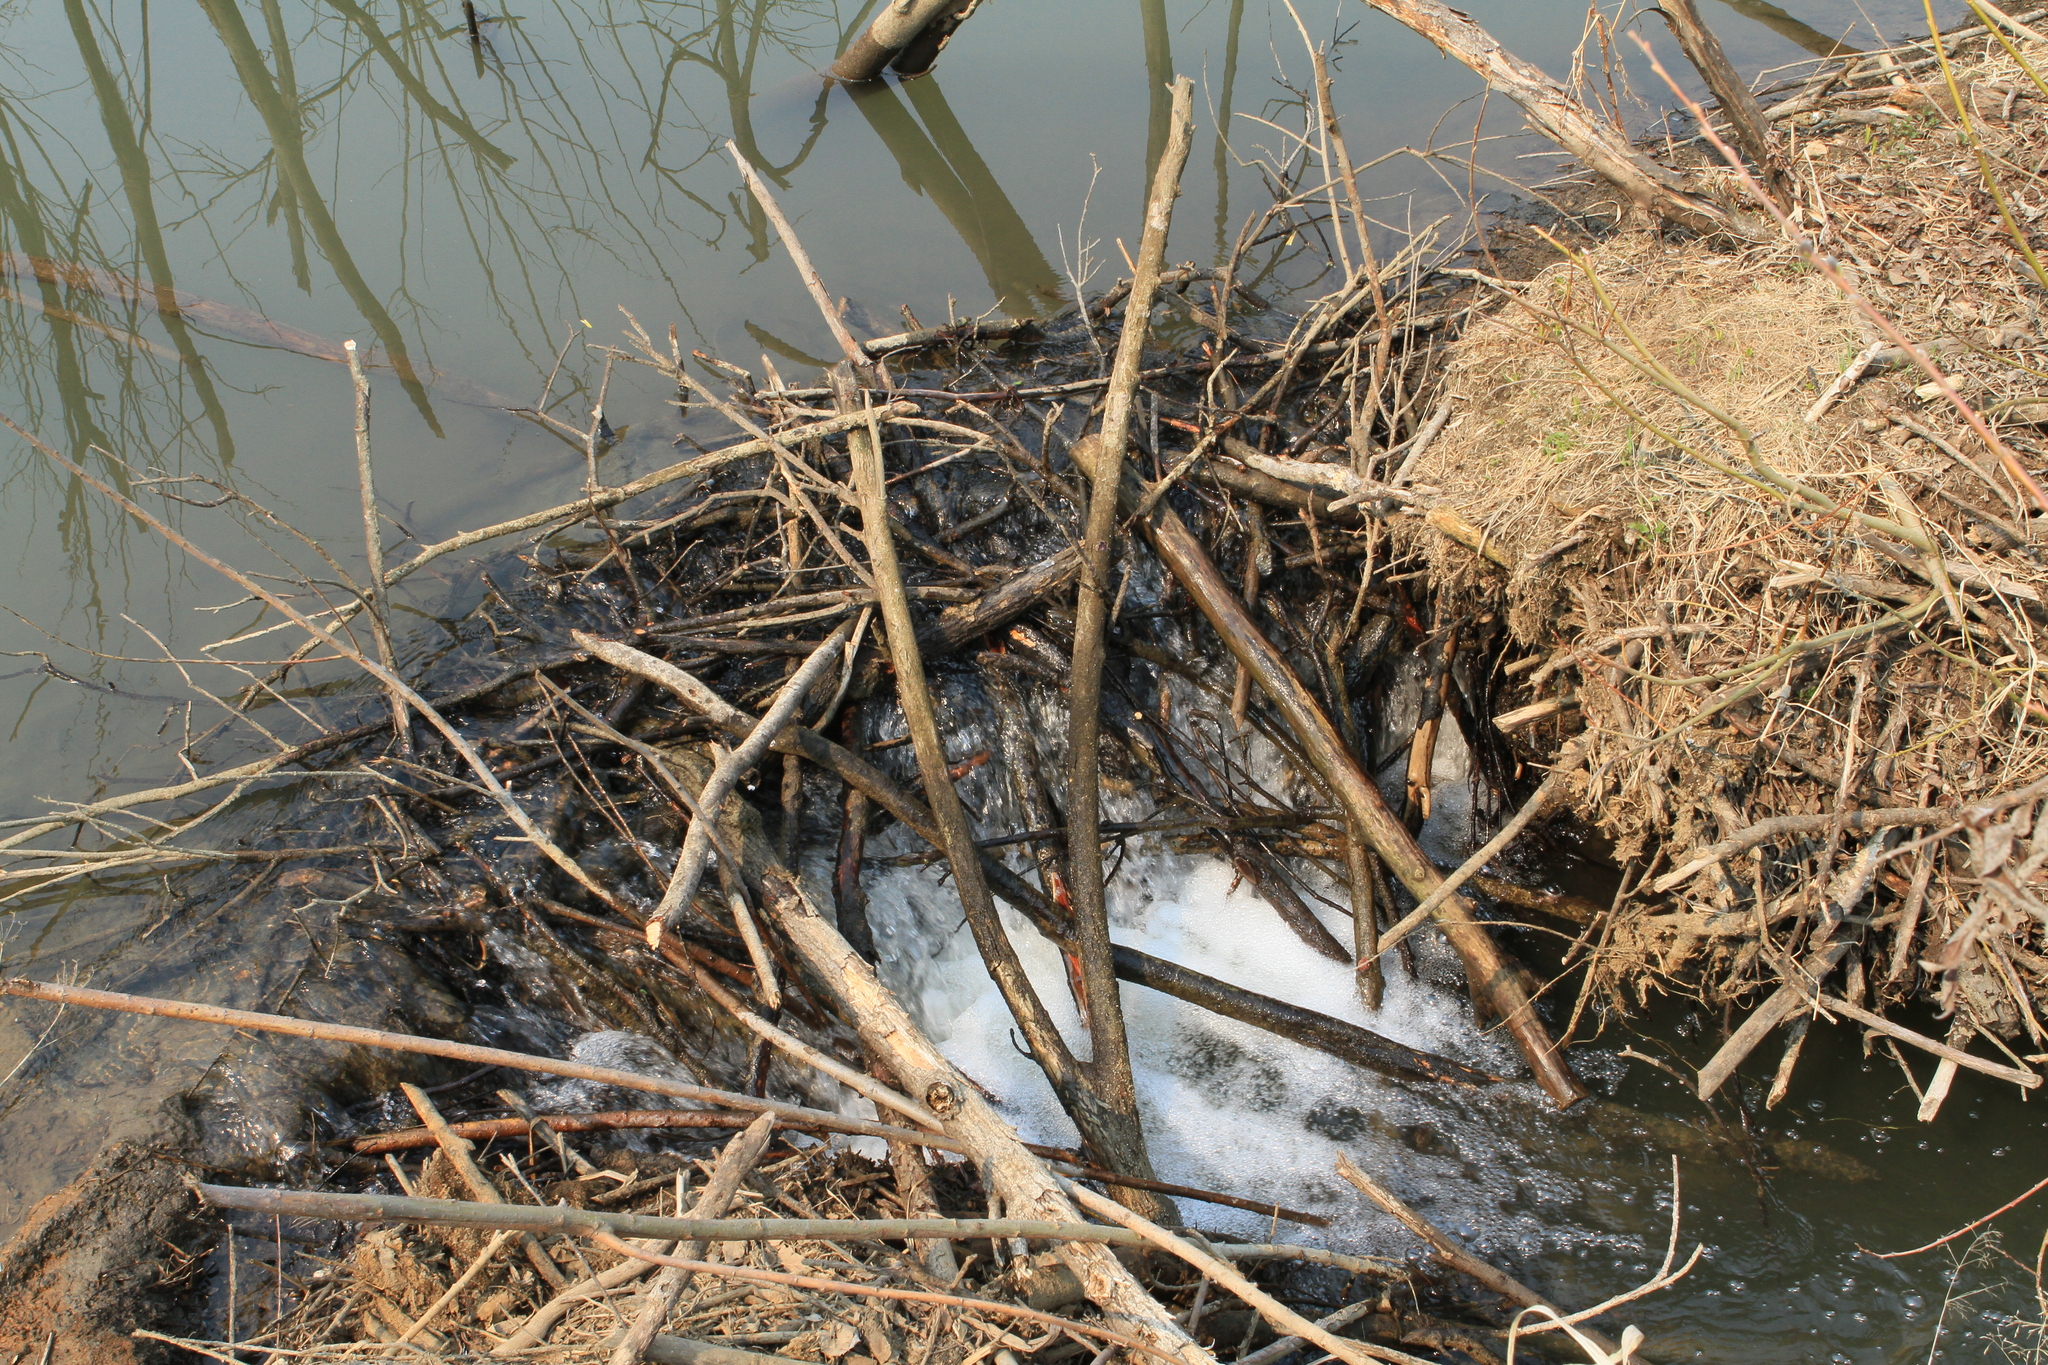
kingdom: Animalia
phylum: Chordata
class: Mammalia
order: Rodentia
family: Castoridae
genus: Castor
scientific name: Castor fiber
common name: Eurasian beaver
